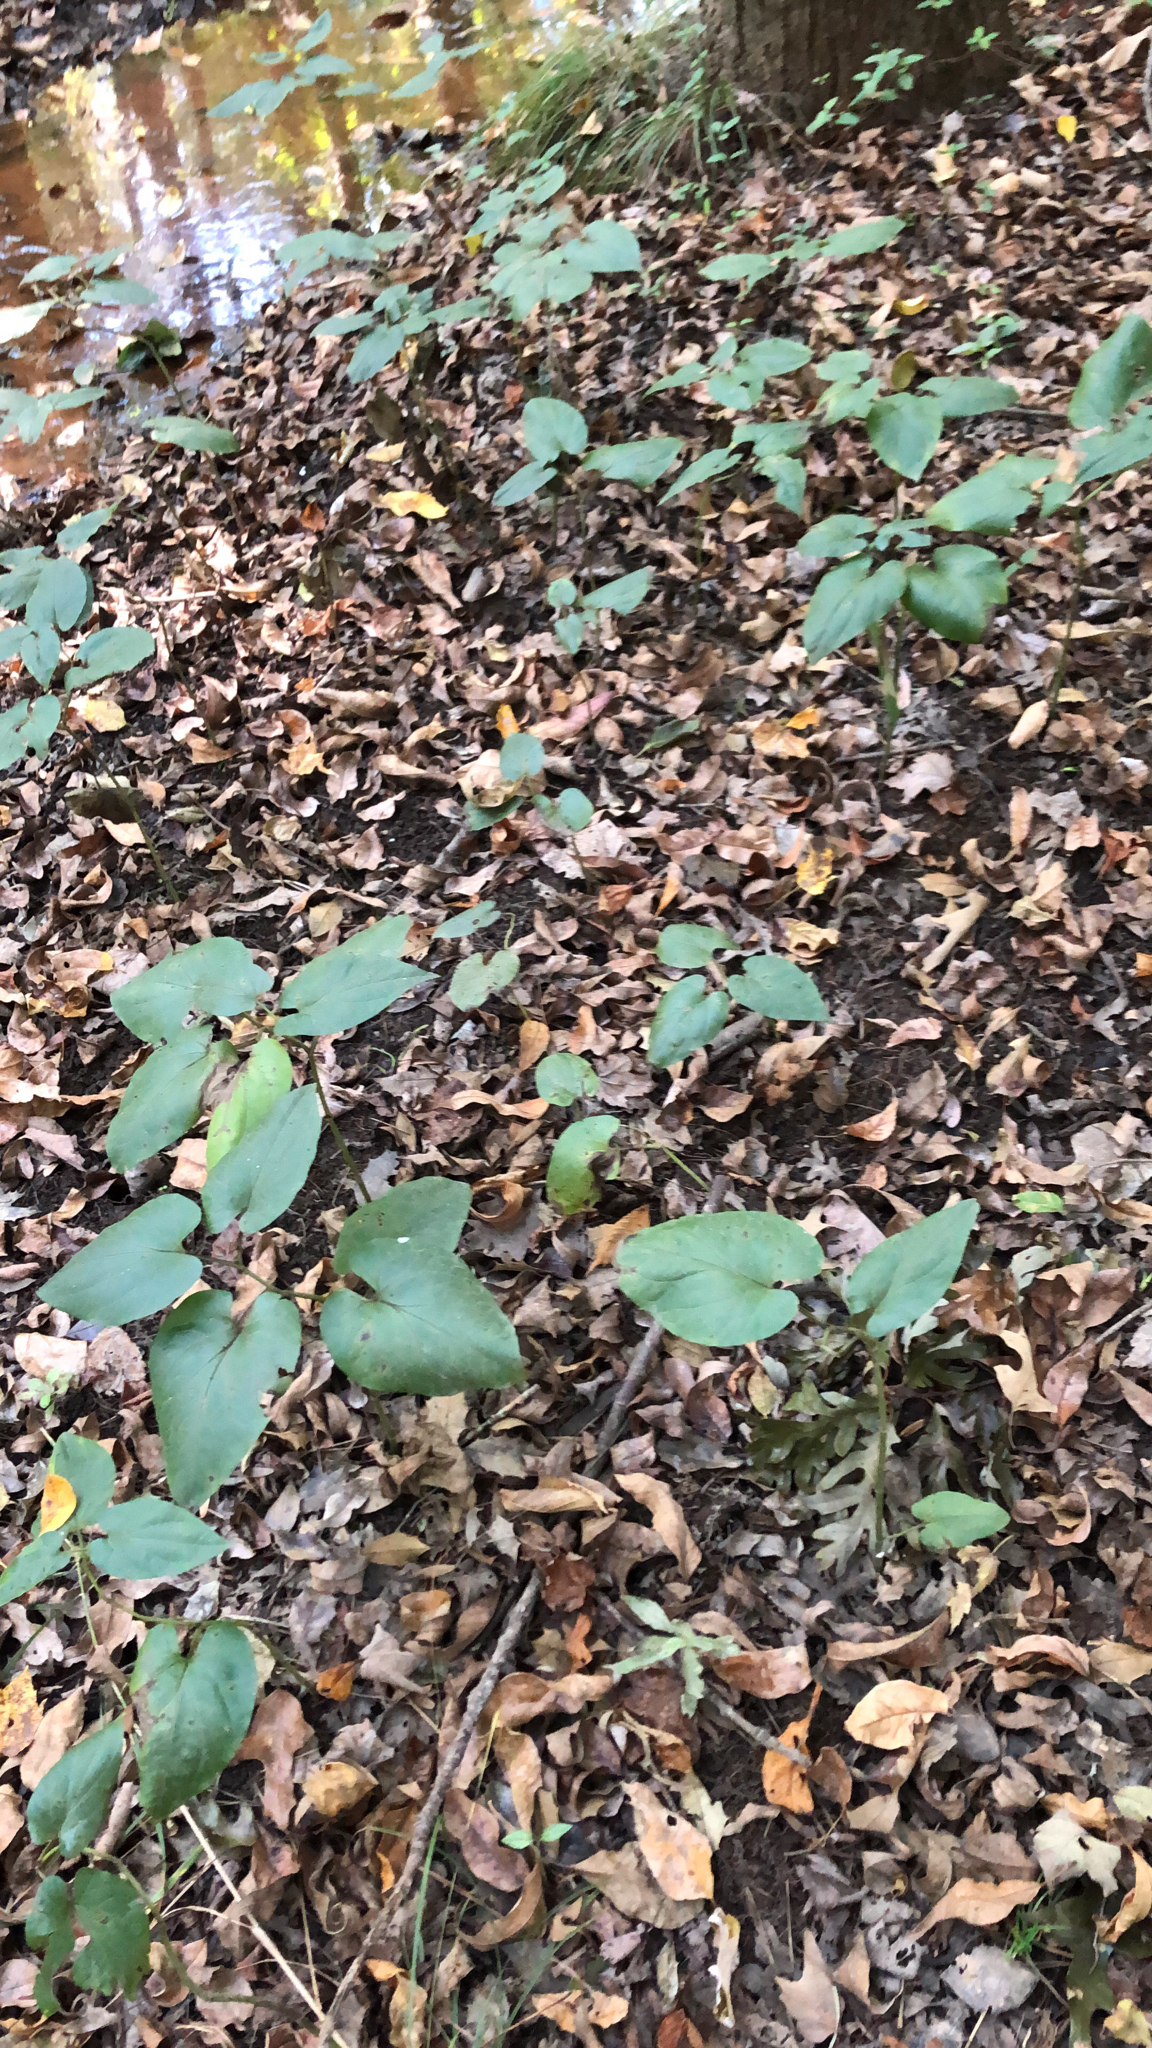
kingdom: Plantae
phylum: Tracheophyta
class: Magnoliopsida
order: Piperales
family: Saururaceae
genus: Saururus
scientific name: Saururus cernuus
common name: Lizard's-tail
